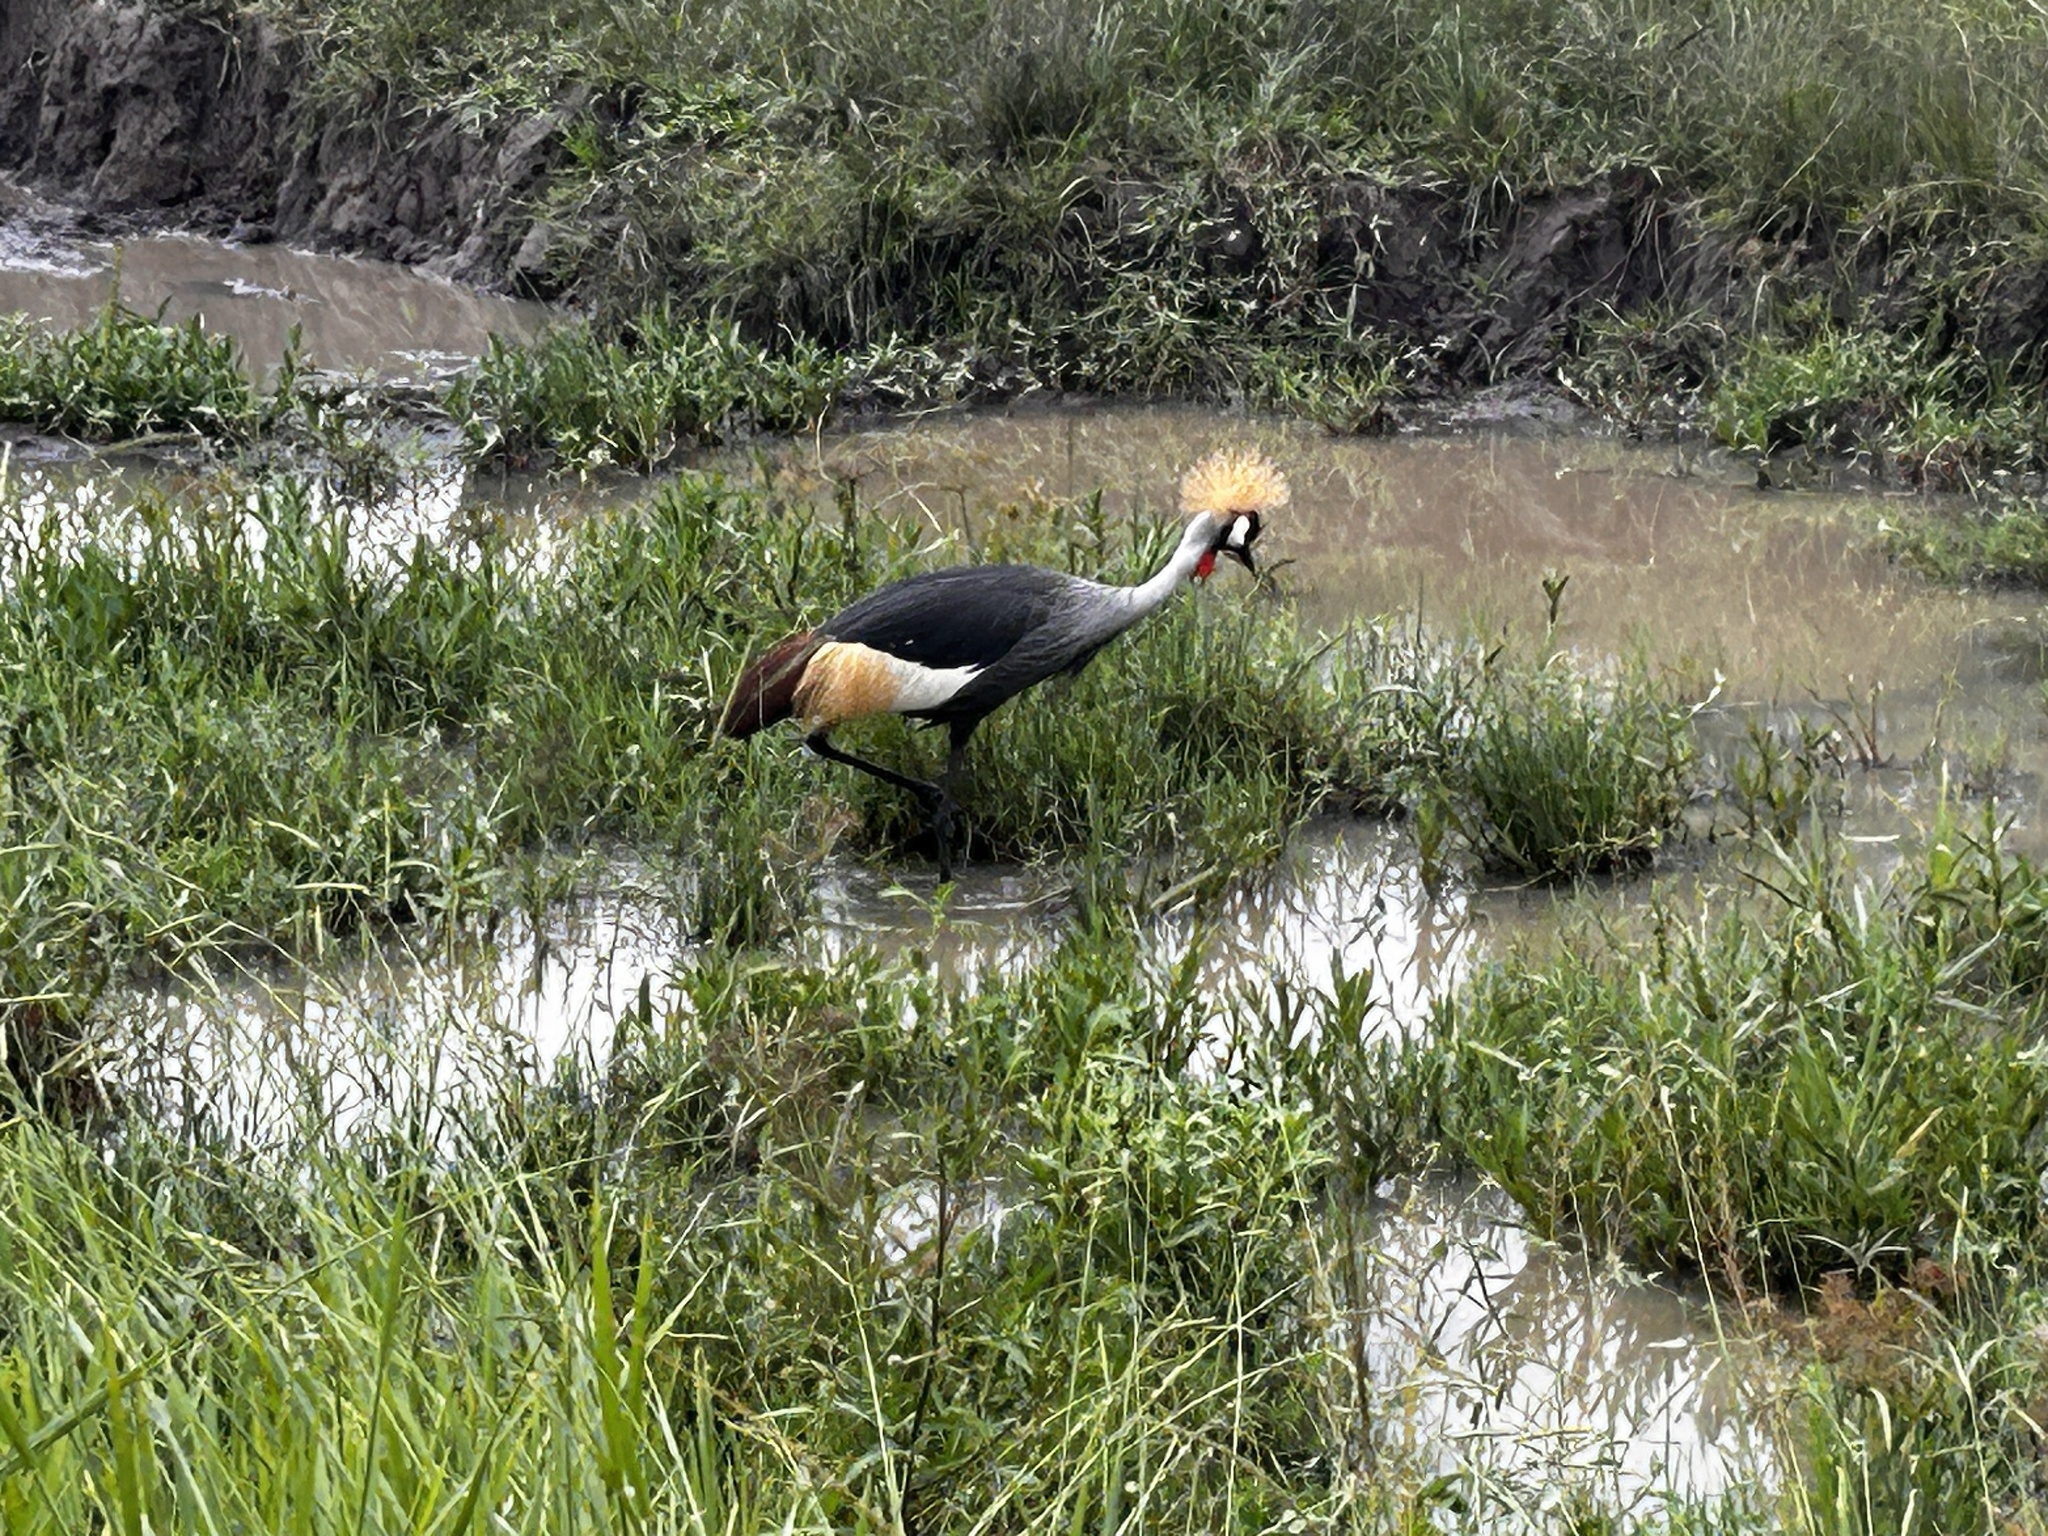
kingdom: Animalia
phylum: Chordata
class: Aves
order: Gruiformes
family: Gruidae
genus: Balearica
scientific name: Balearica regulorum
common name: Grey crowned crane
